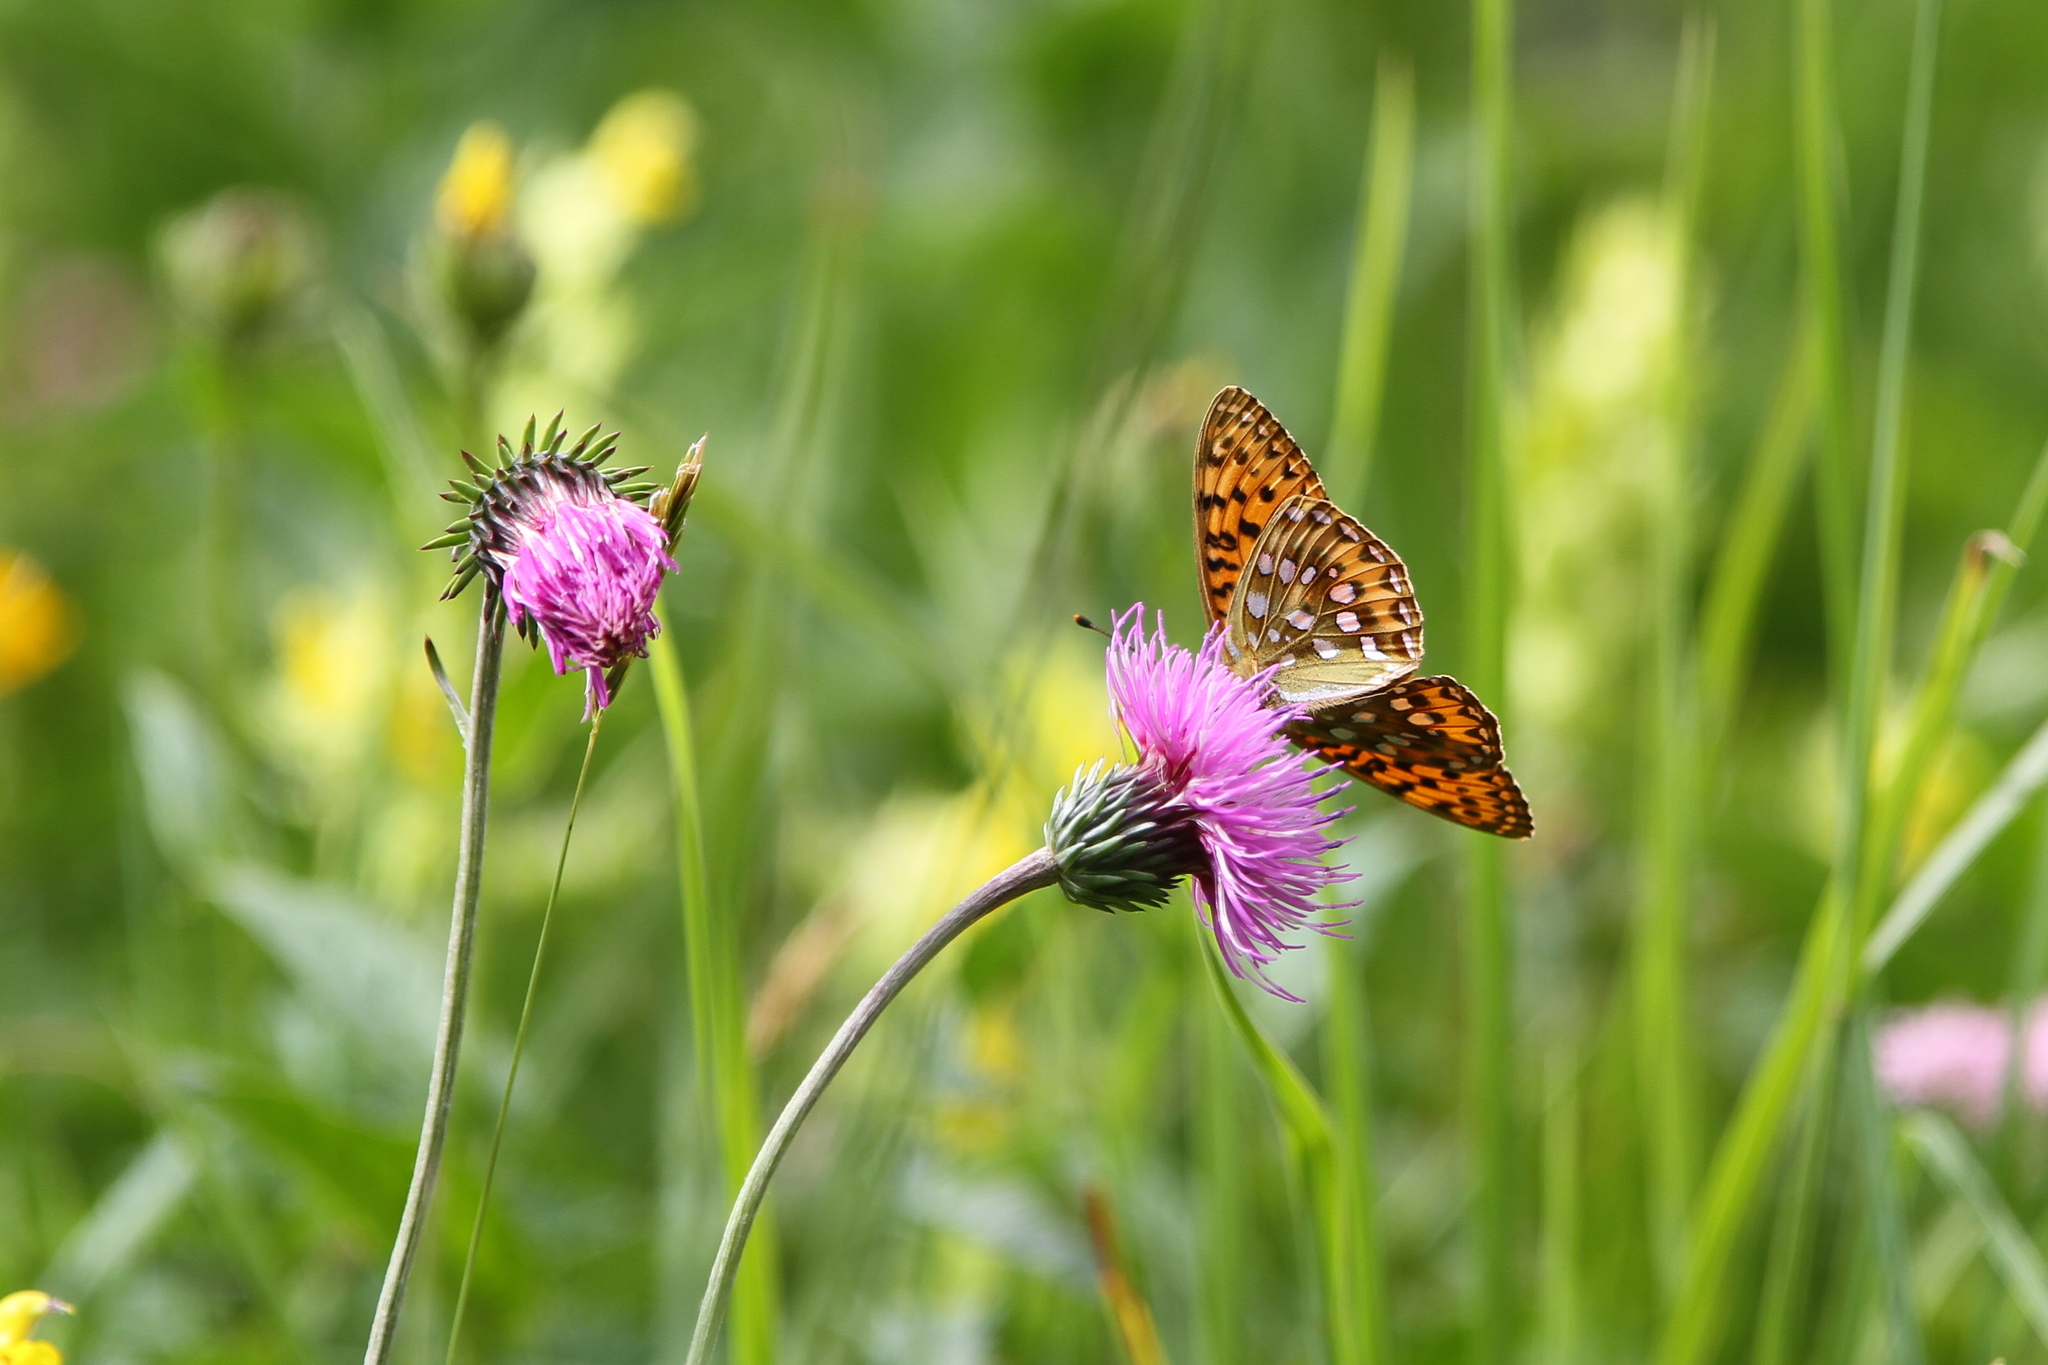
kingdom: Animalia
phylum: Arthropoda
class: Insecta
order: Lepidoptera
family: Nymphalidae
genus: Speyeria
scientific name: Speyeria aglaja
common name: Dark green fritillary
